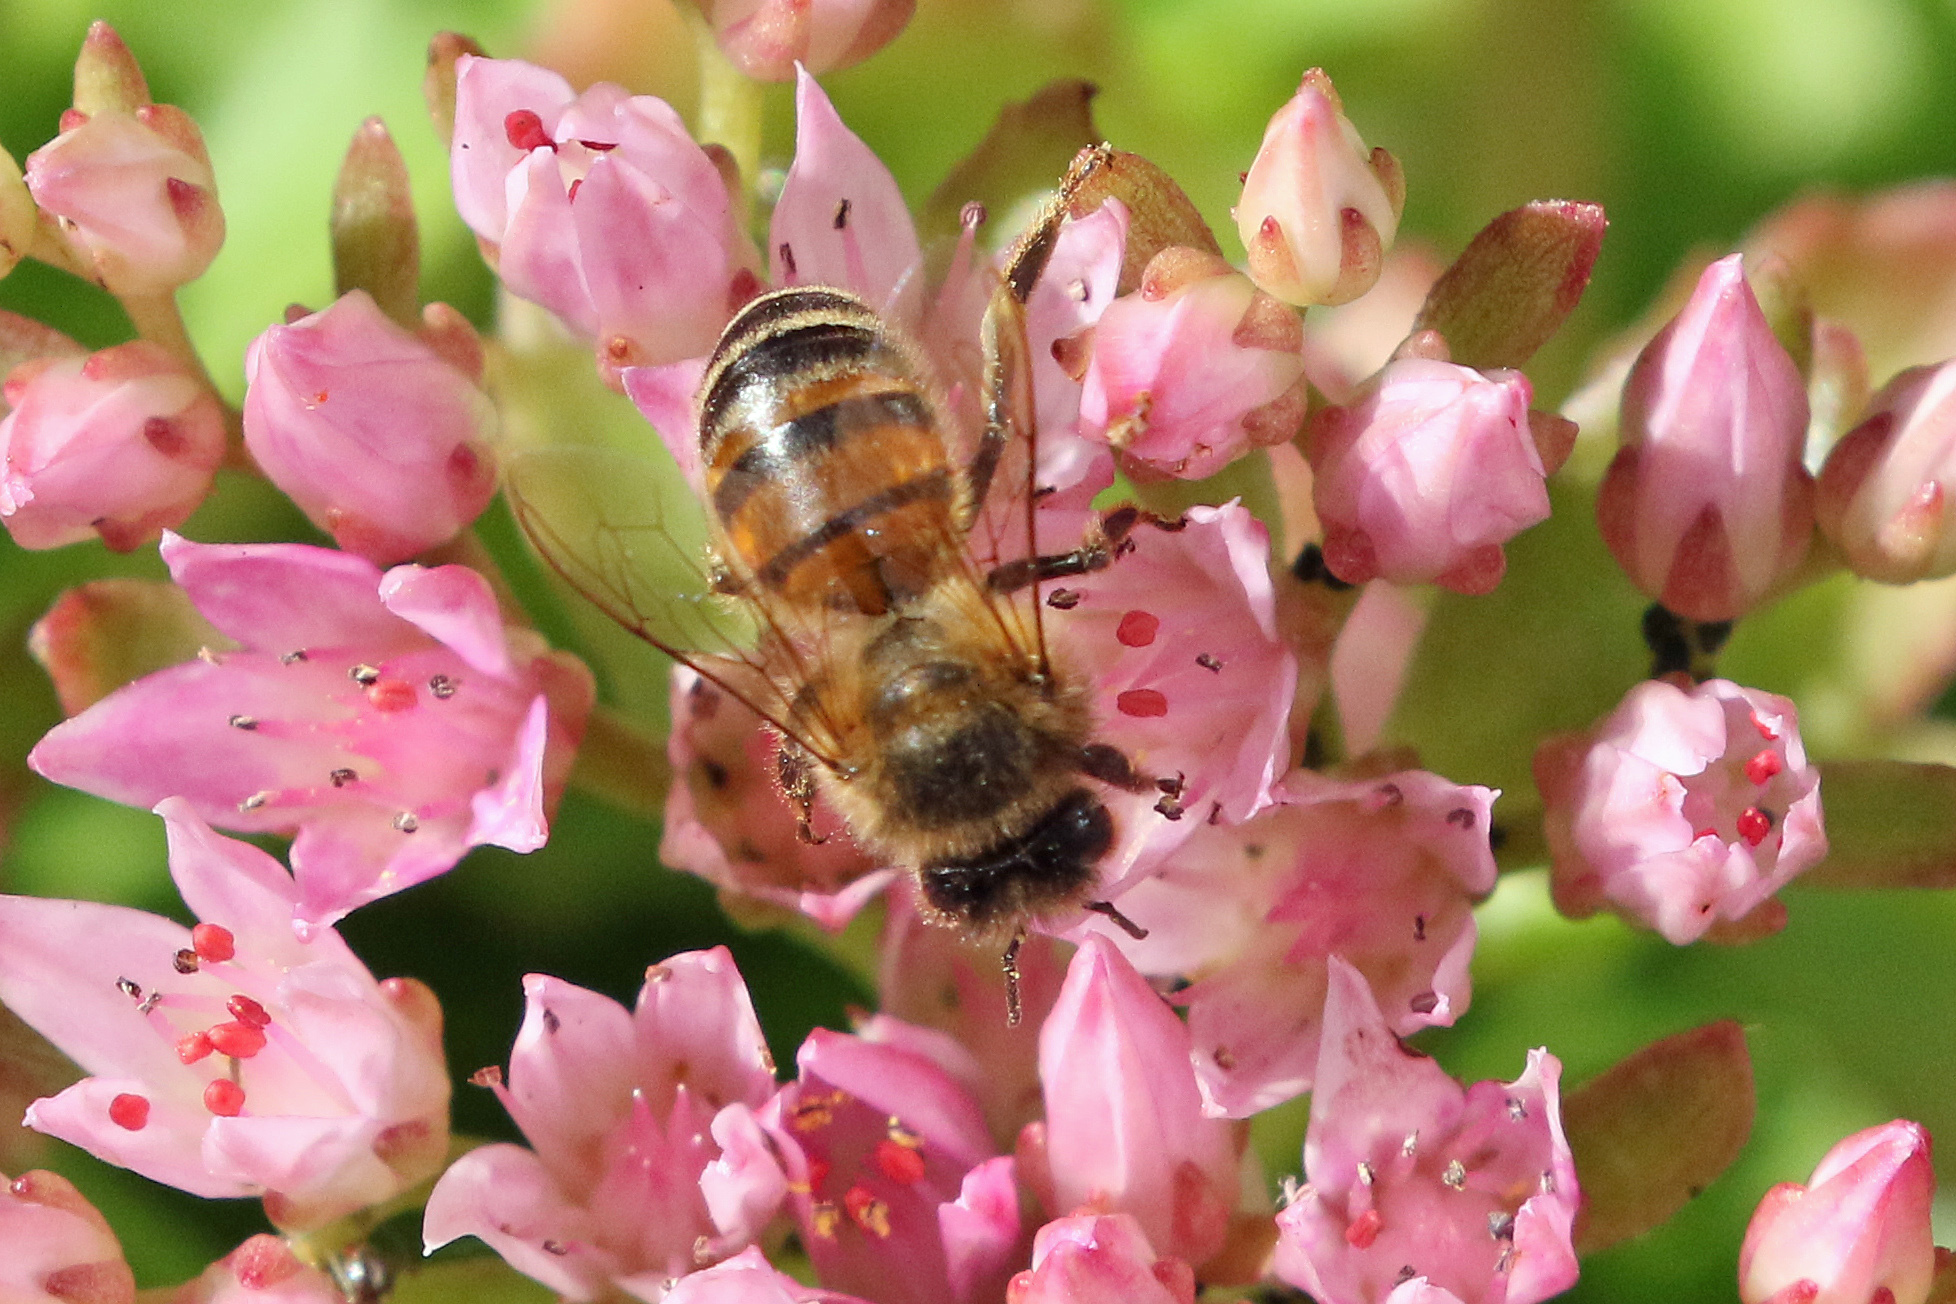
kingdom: Animalia
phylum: Arthropoda
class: Insecta
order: Hymenoptera
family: Apidae
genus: Apis
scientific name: Apis mellifera
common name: Honey bee
